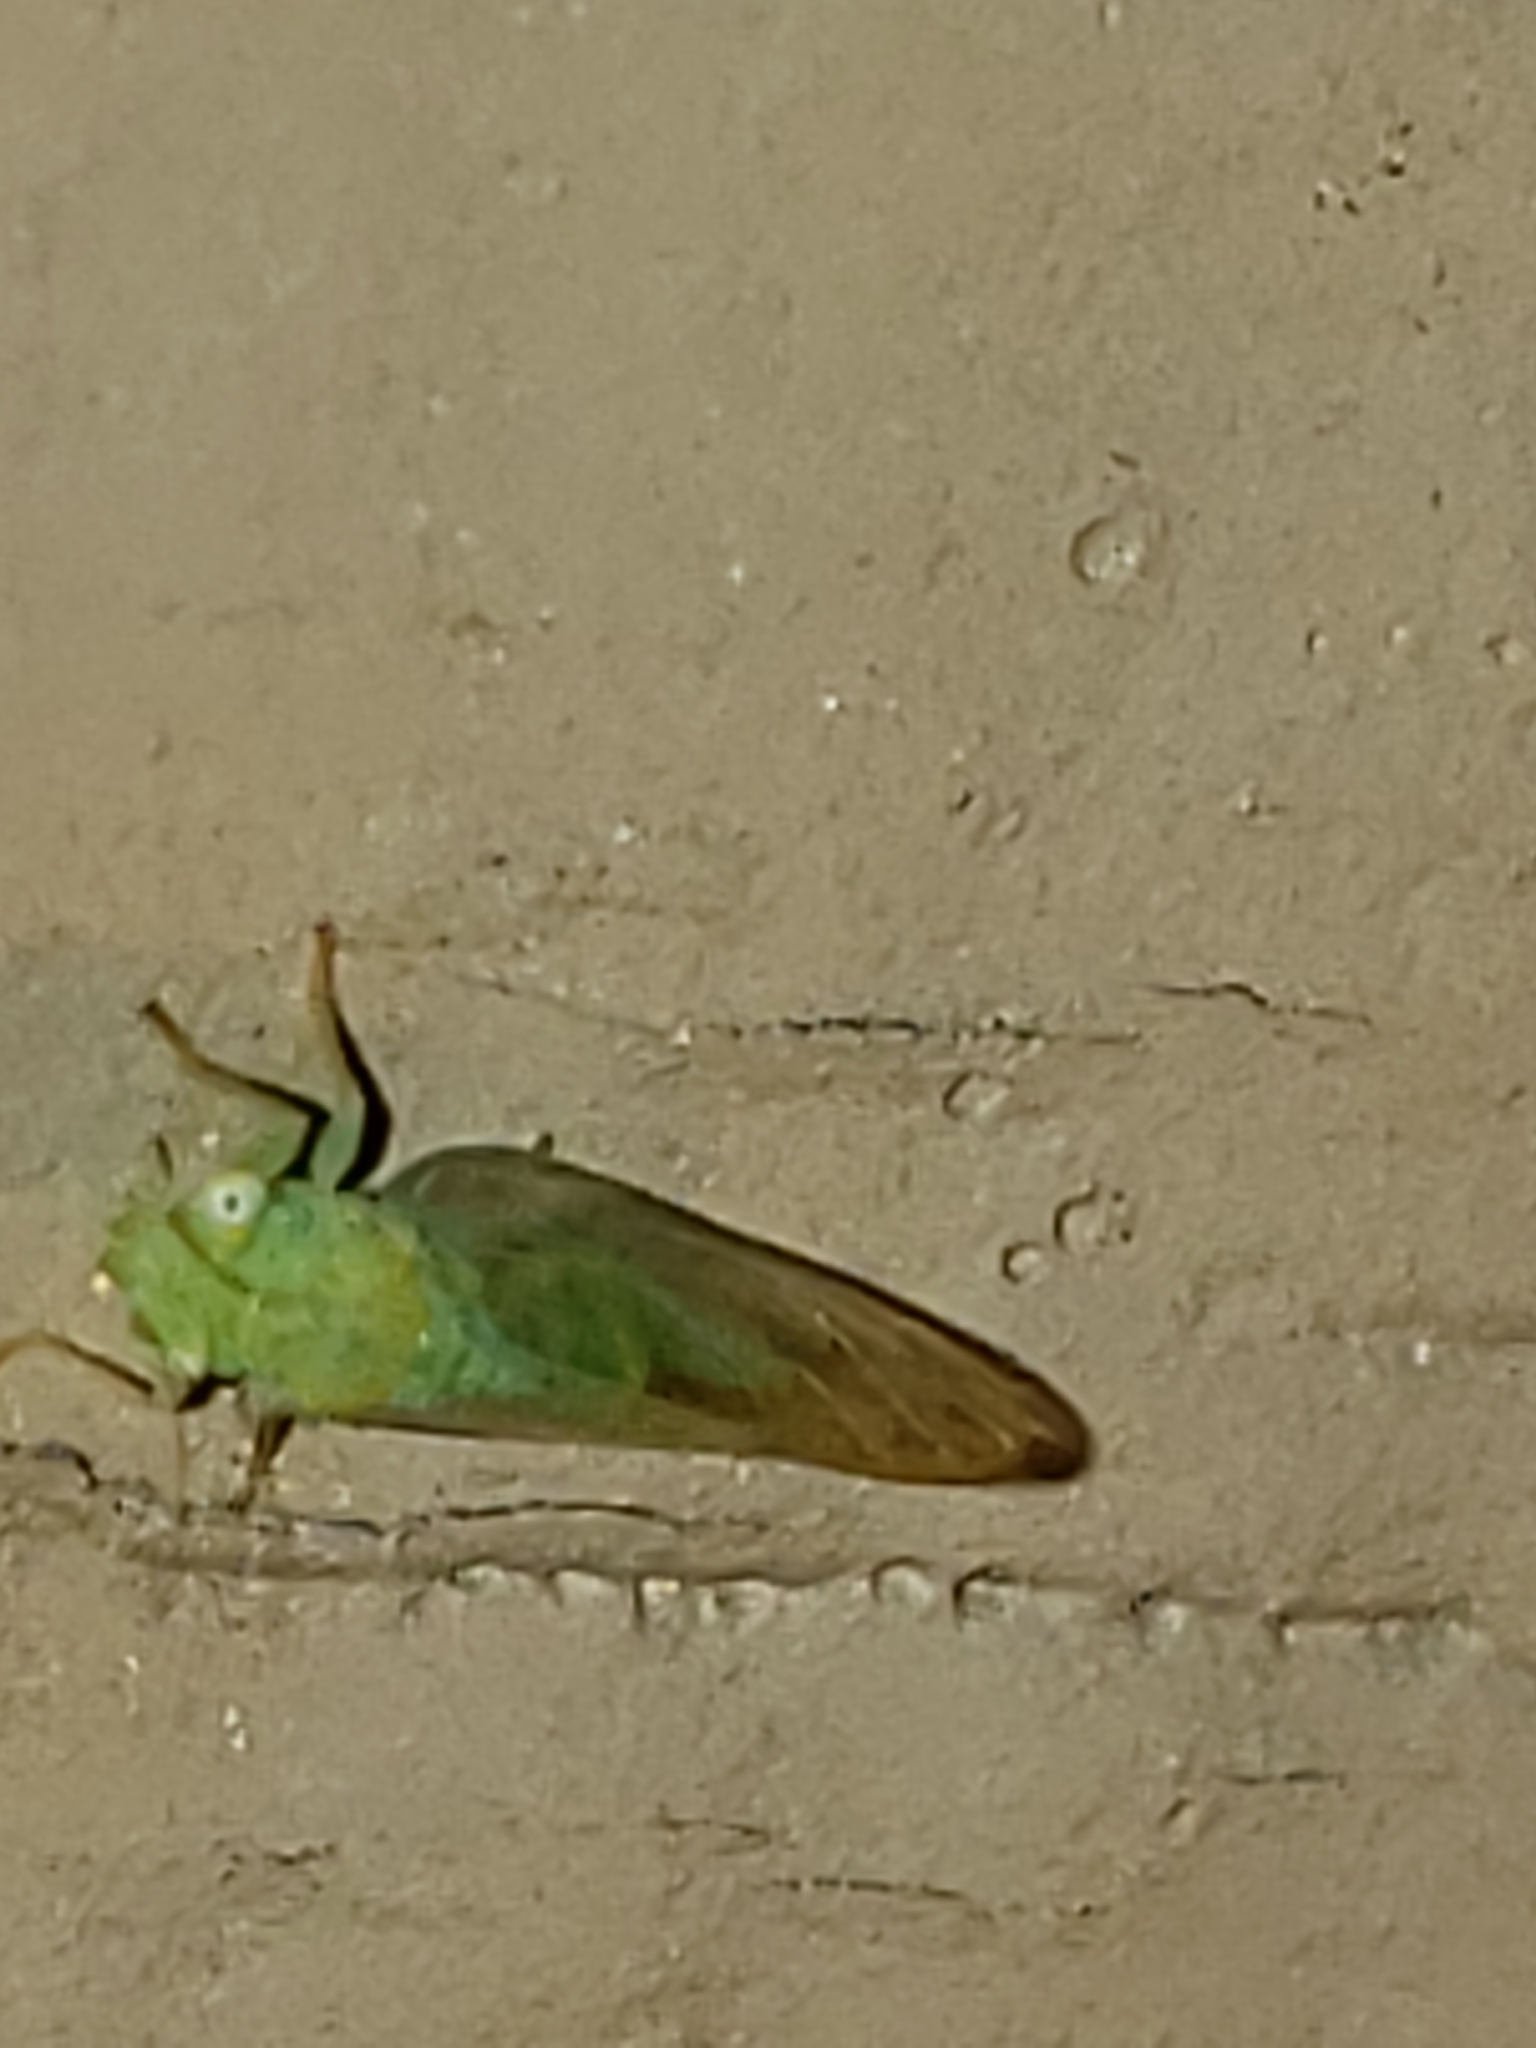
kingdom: Animalia
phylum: Arthropoda
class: Insecta
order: Hemiptera
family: Psyllidae
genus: Psylla
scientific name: Psylla carpinicola
